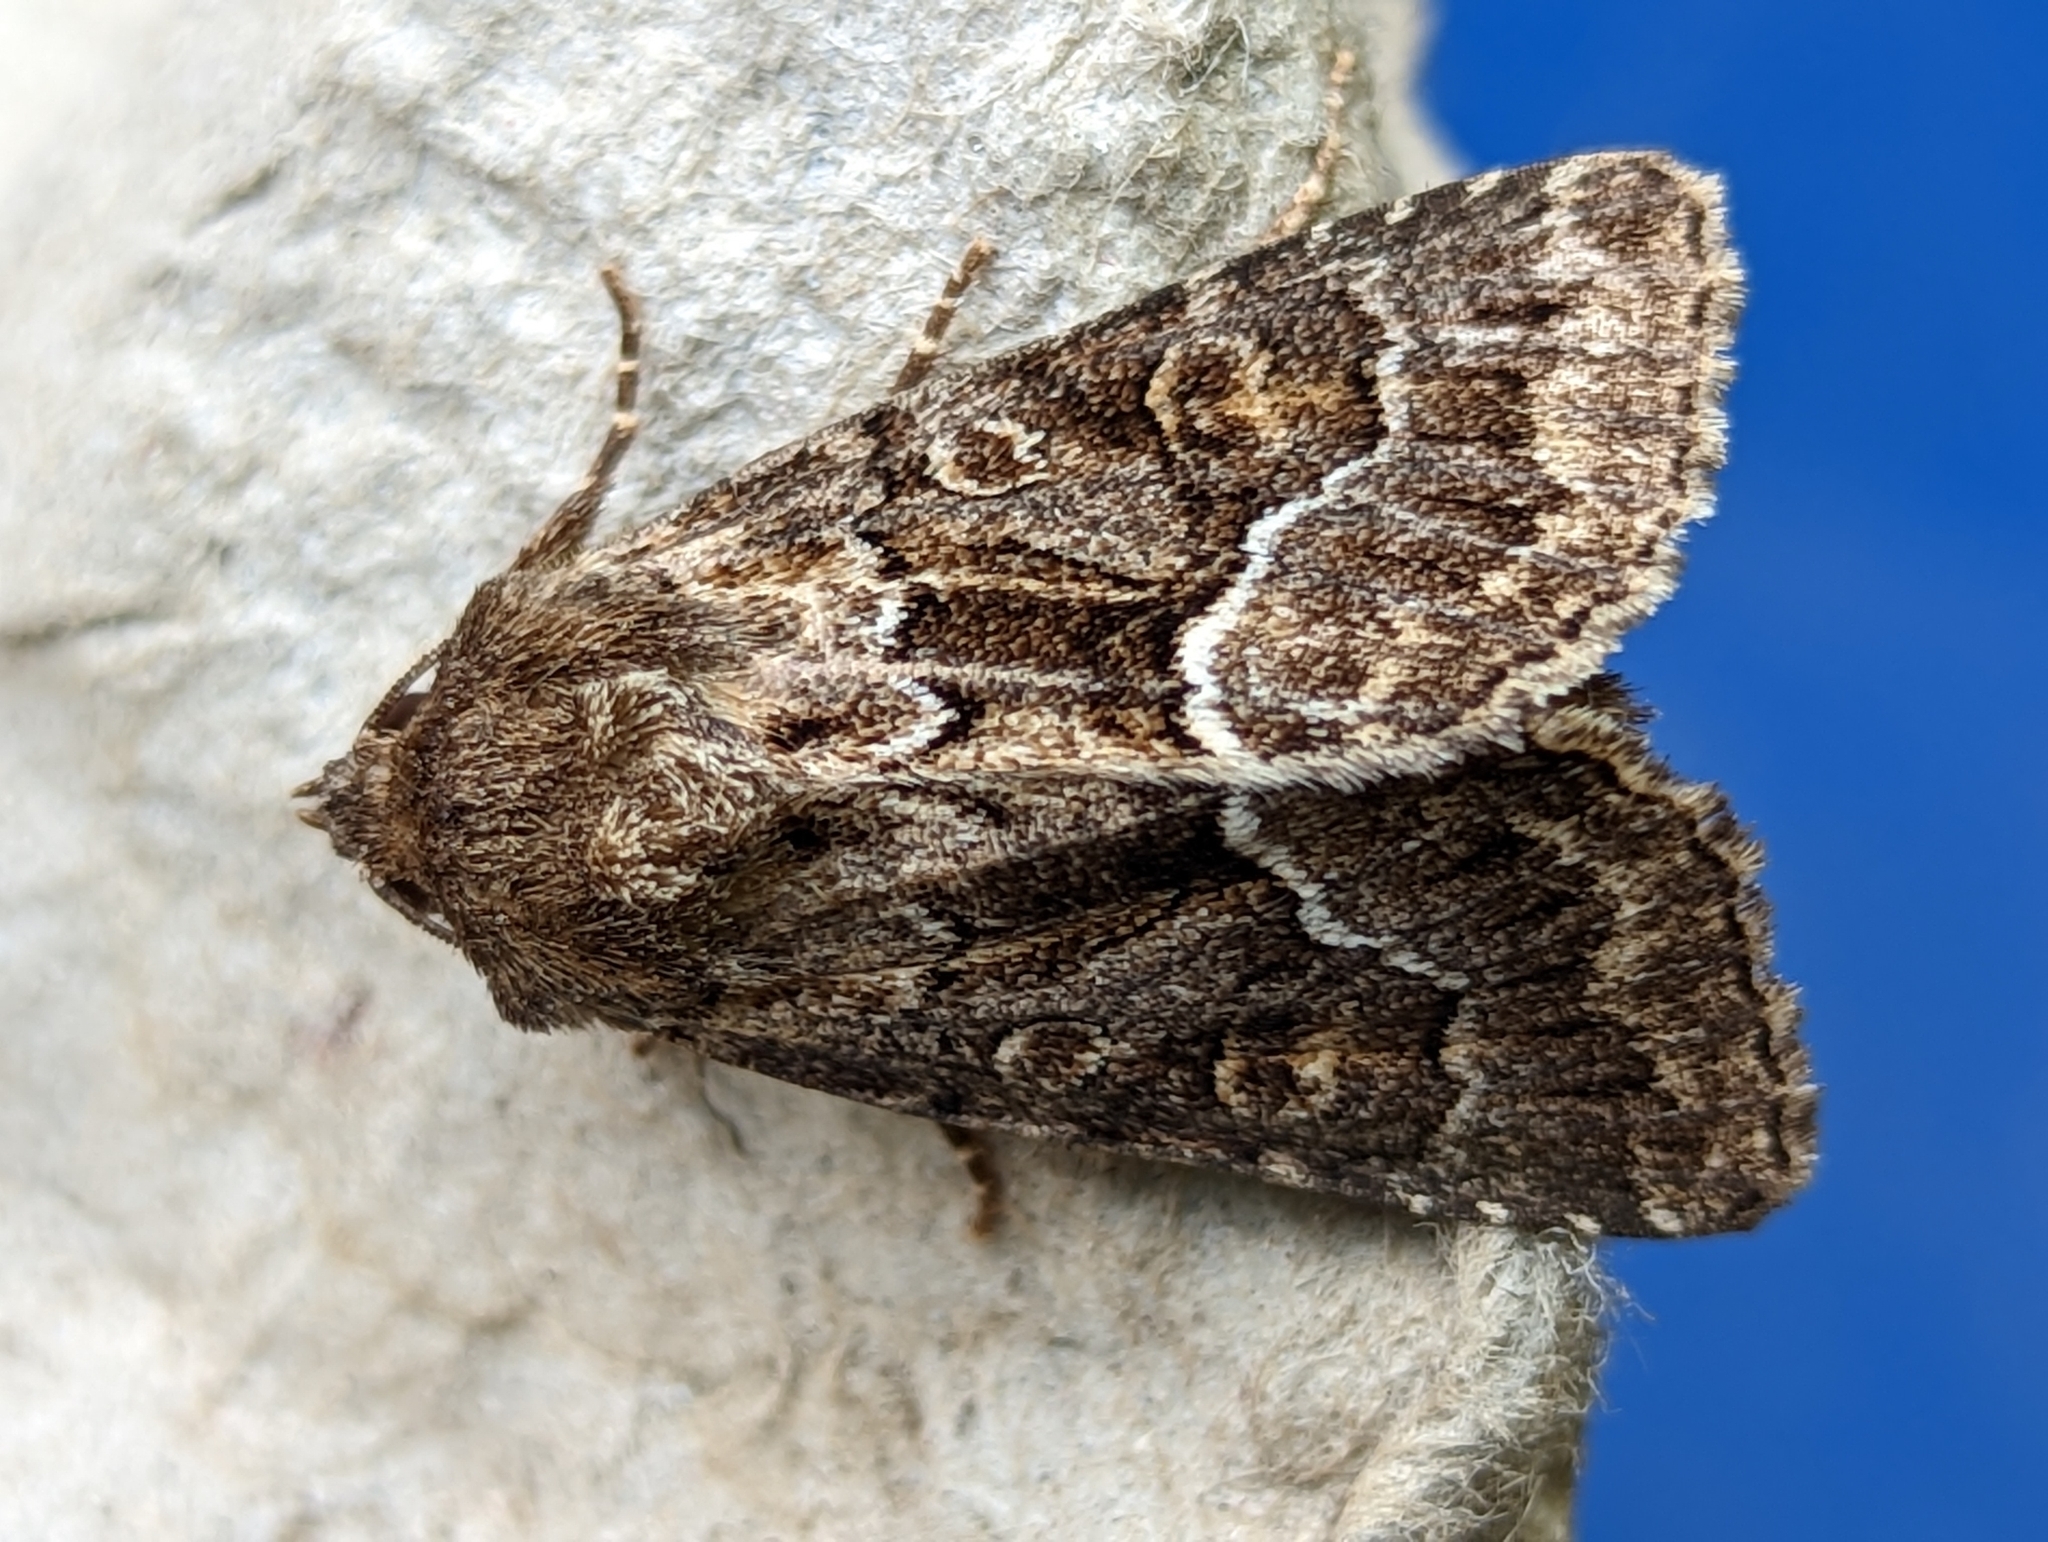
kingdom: Animalia
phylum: Arthropoda
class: Insecta
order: Lepidoptera
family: Noctuidae
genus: Thalpophila
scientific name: Thalpophila matura
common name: Straw underwing
